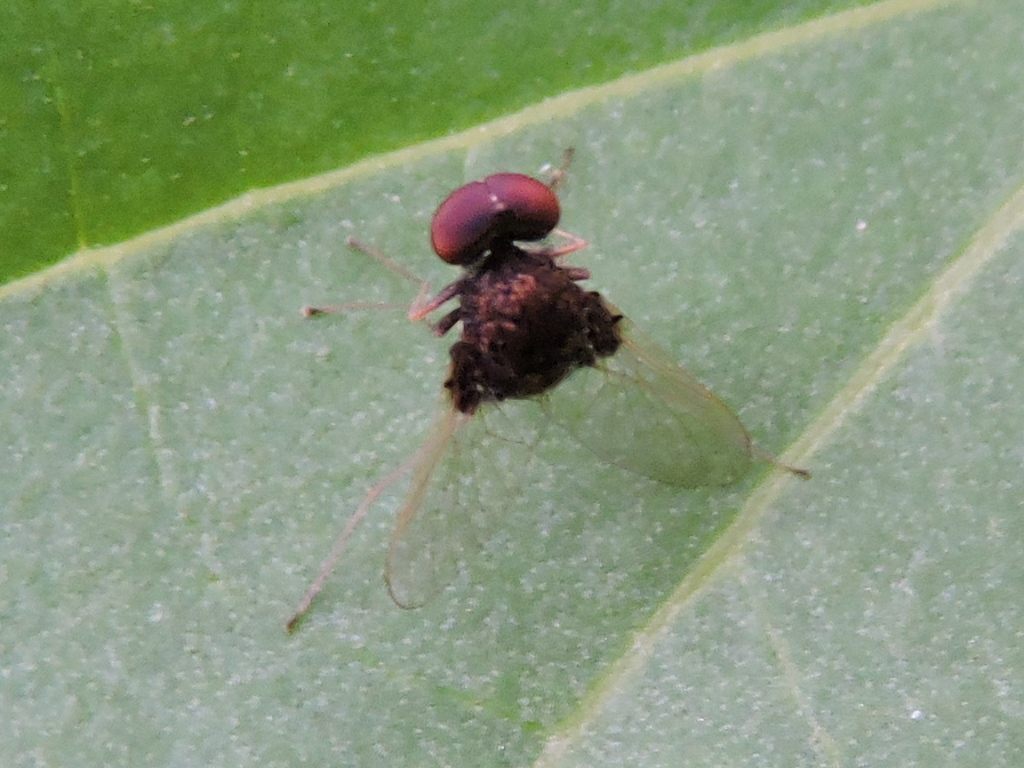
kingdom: Animalia
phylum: Arthropoda
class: Insecta
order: Diptera
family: Rhagionidae
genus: Chrysopilus
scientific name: Chrysopilus basilaris
